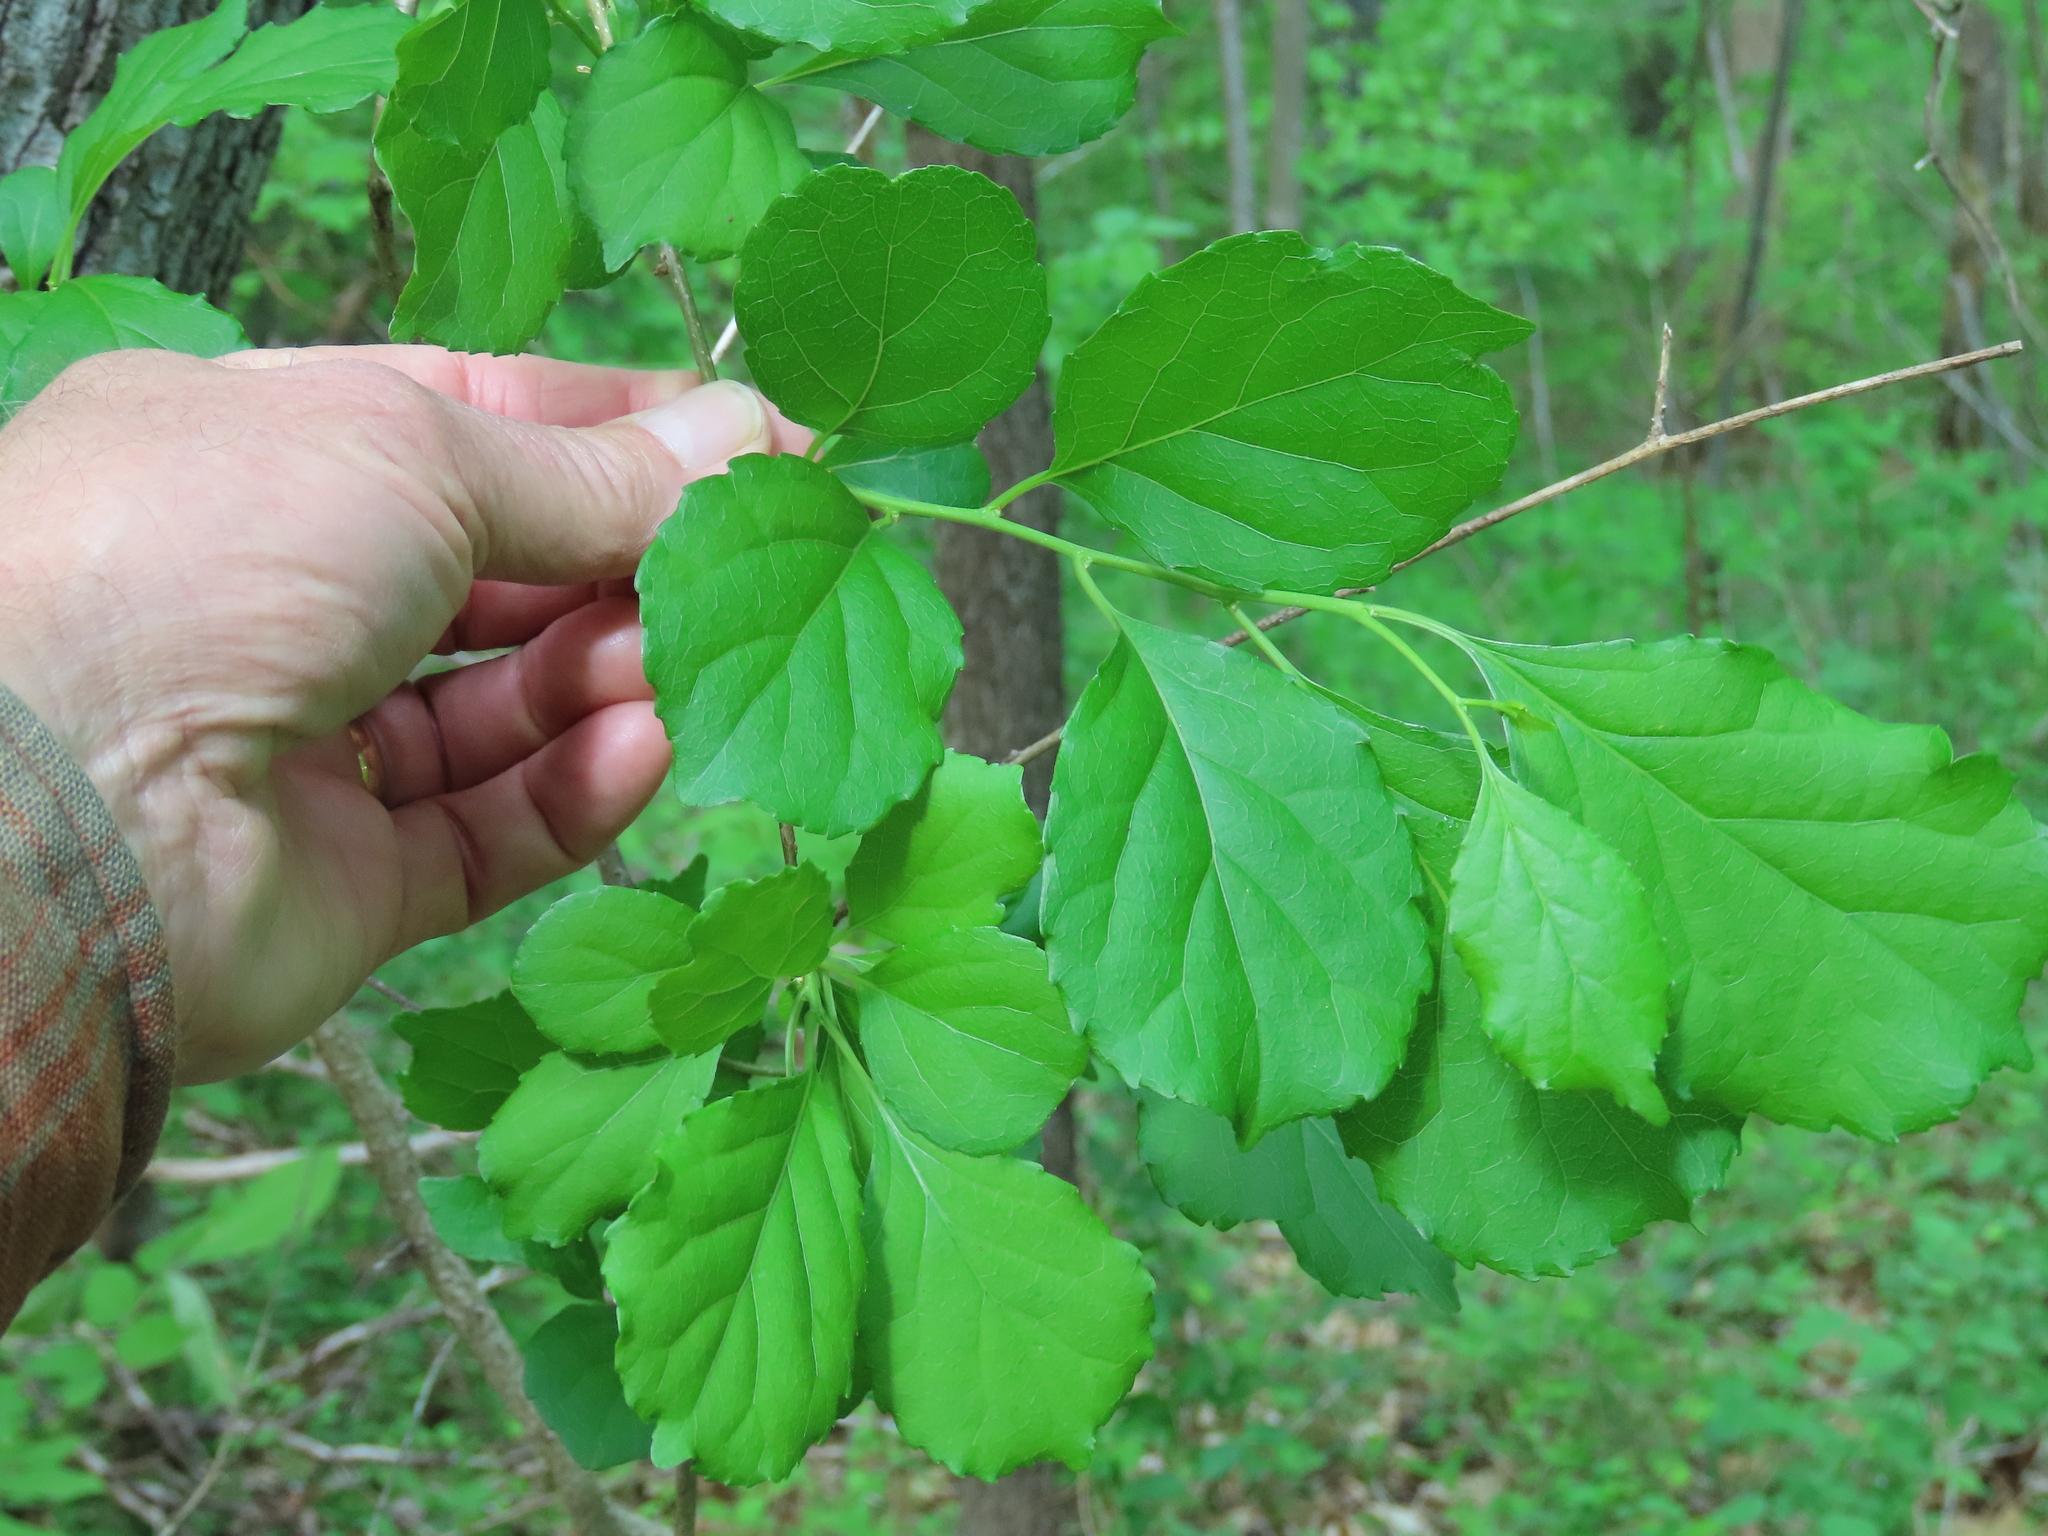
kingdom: Plantae
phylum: Tracheophyta
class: Magnoliopsida
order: Celastrales
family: Celastraceae
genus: Celastrus
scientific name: Celastrus orbiculatus
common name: Oriental bittersweet
